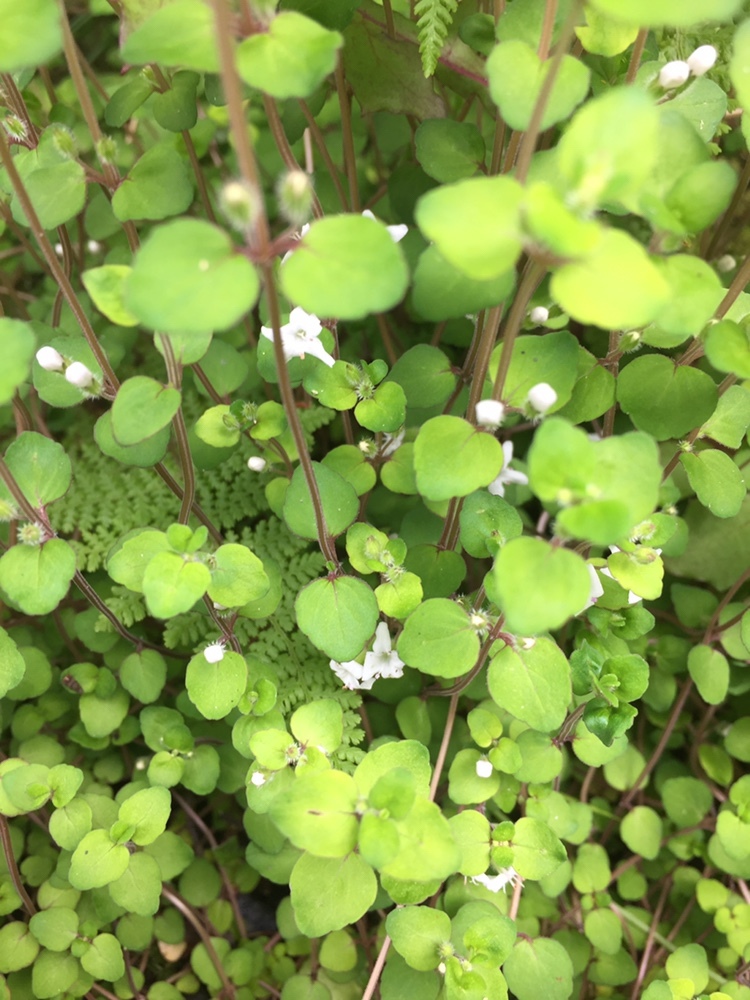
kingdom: Plantae
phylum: Tracheophyta
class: Magnoliopsida
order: Lamiales
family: Lamiaceae
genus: Mentha
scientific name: Mentha cunninghamii
